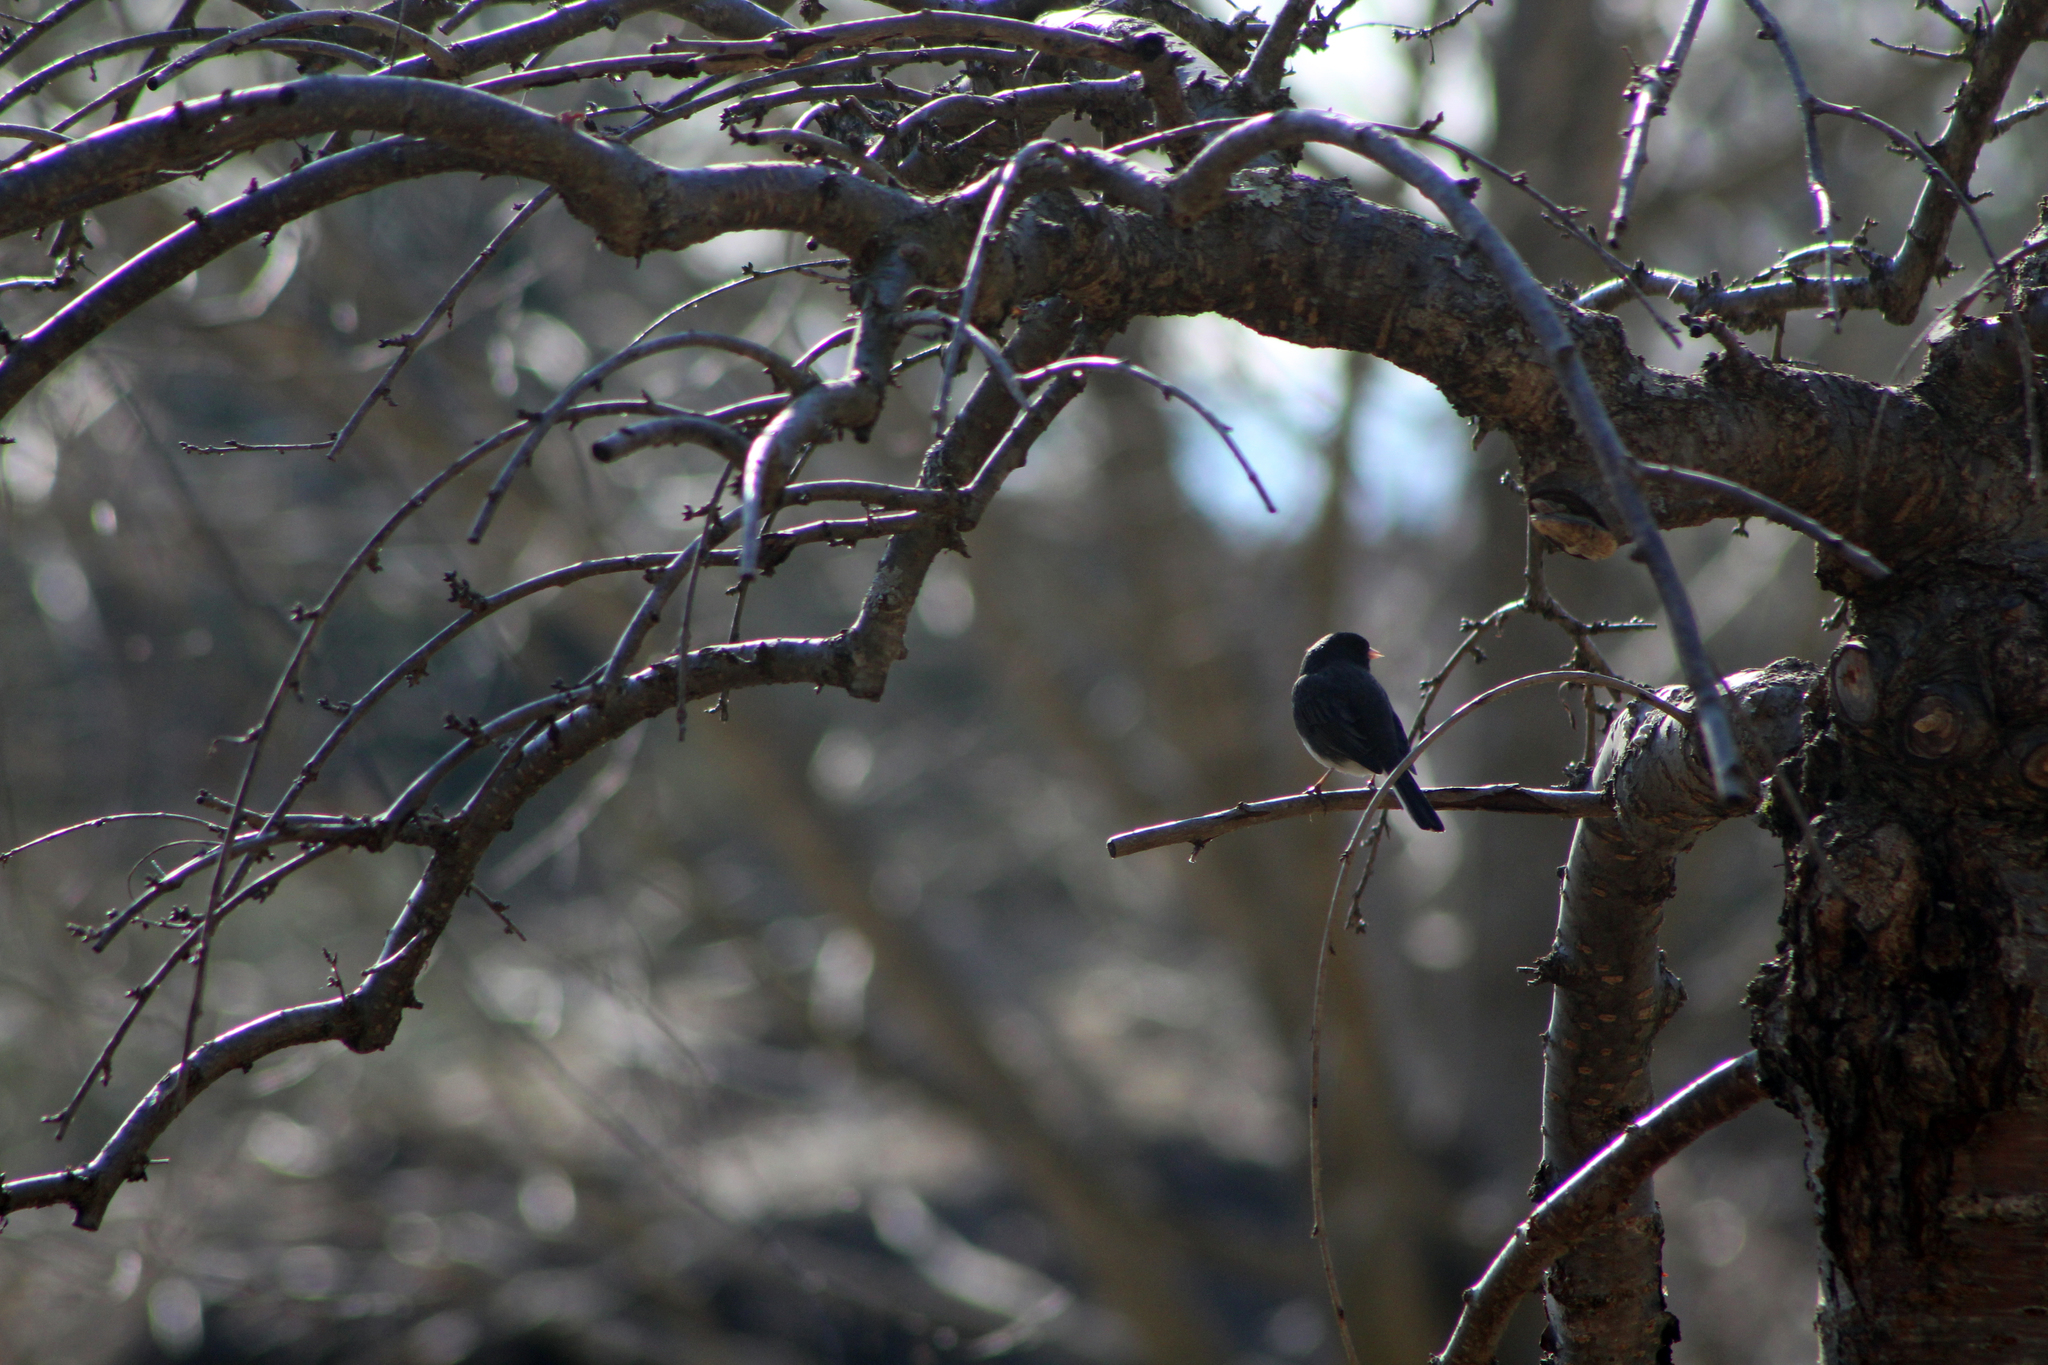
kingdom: Animalia
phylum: Chordata
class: Aves
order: Passeriformes
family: Passerellidae
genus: Junco
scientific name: Junco hyemalis
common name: Dark-eyed junco
